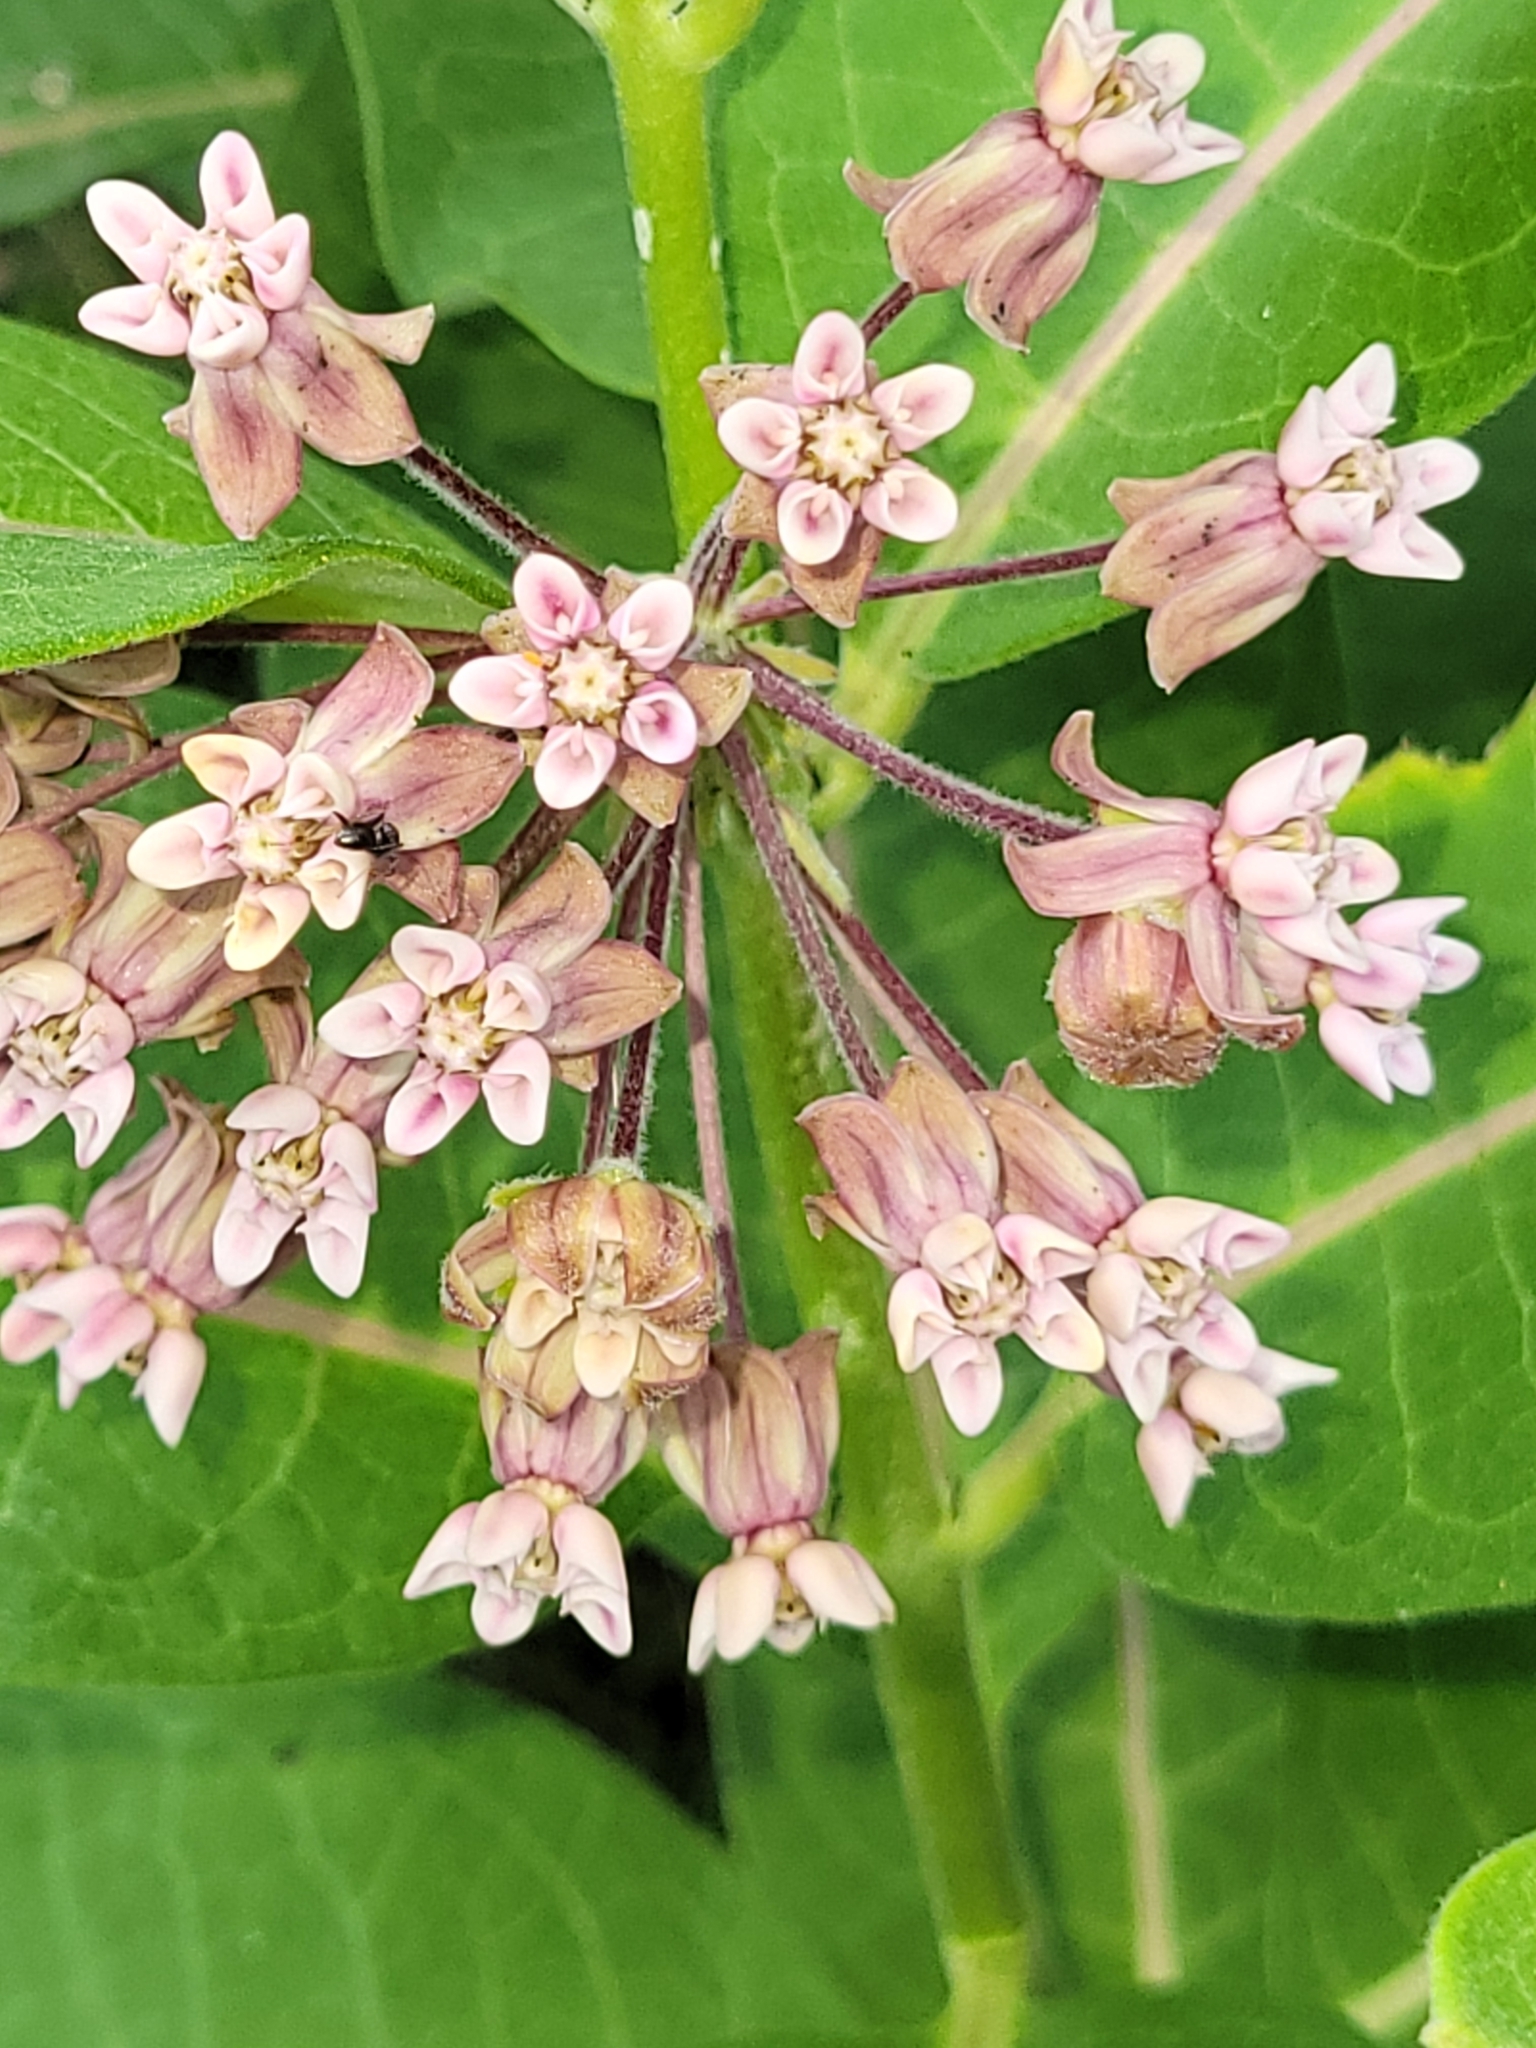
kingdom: Plantae
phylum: Tracheophyta
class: Magnoliopsida
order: Gentianales
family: Apocynaceae
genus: Asclepias
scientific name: Asclepias syriaca
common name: Common milkweed
